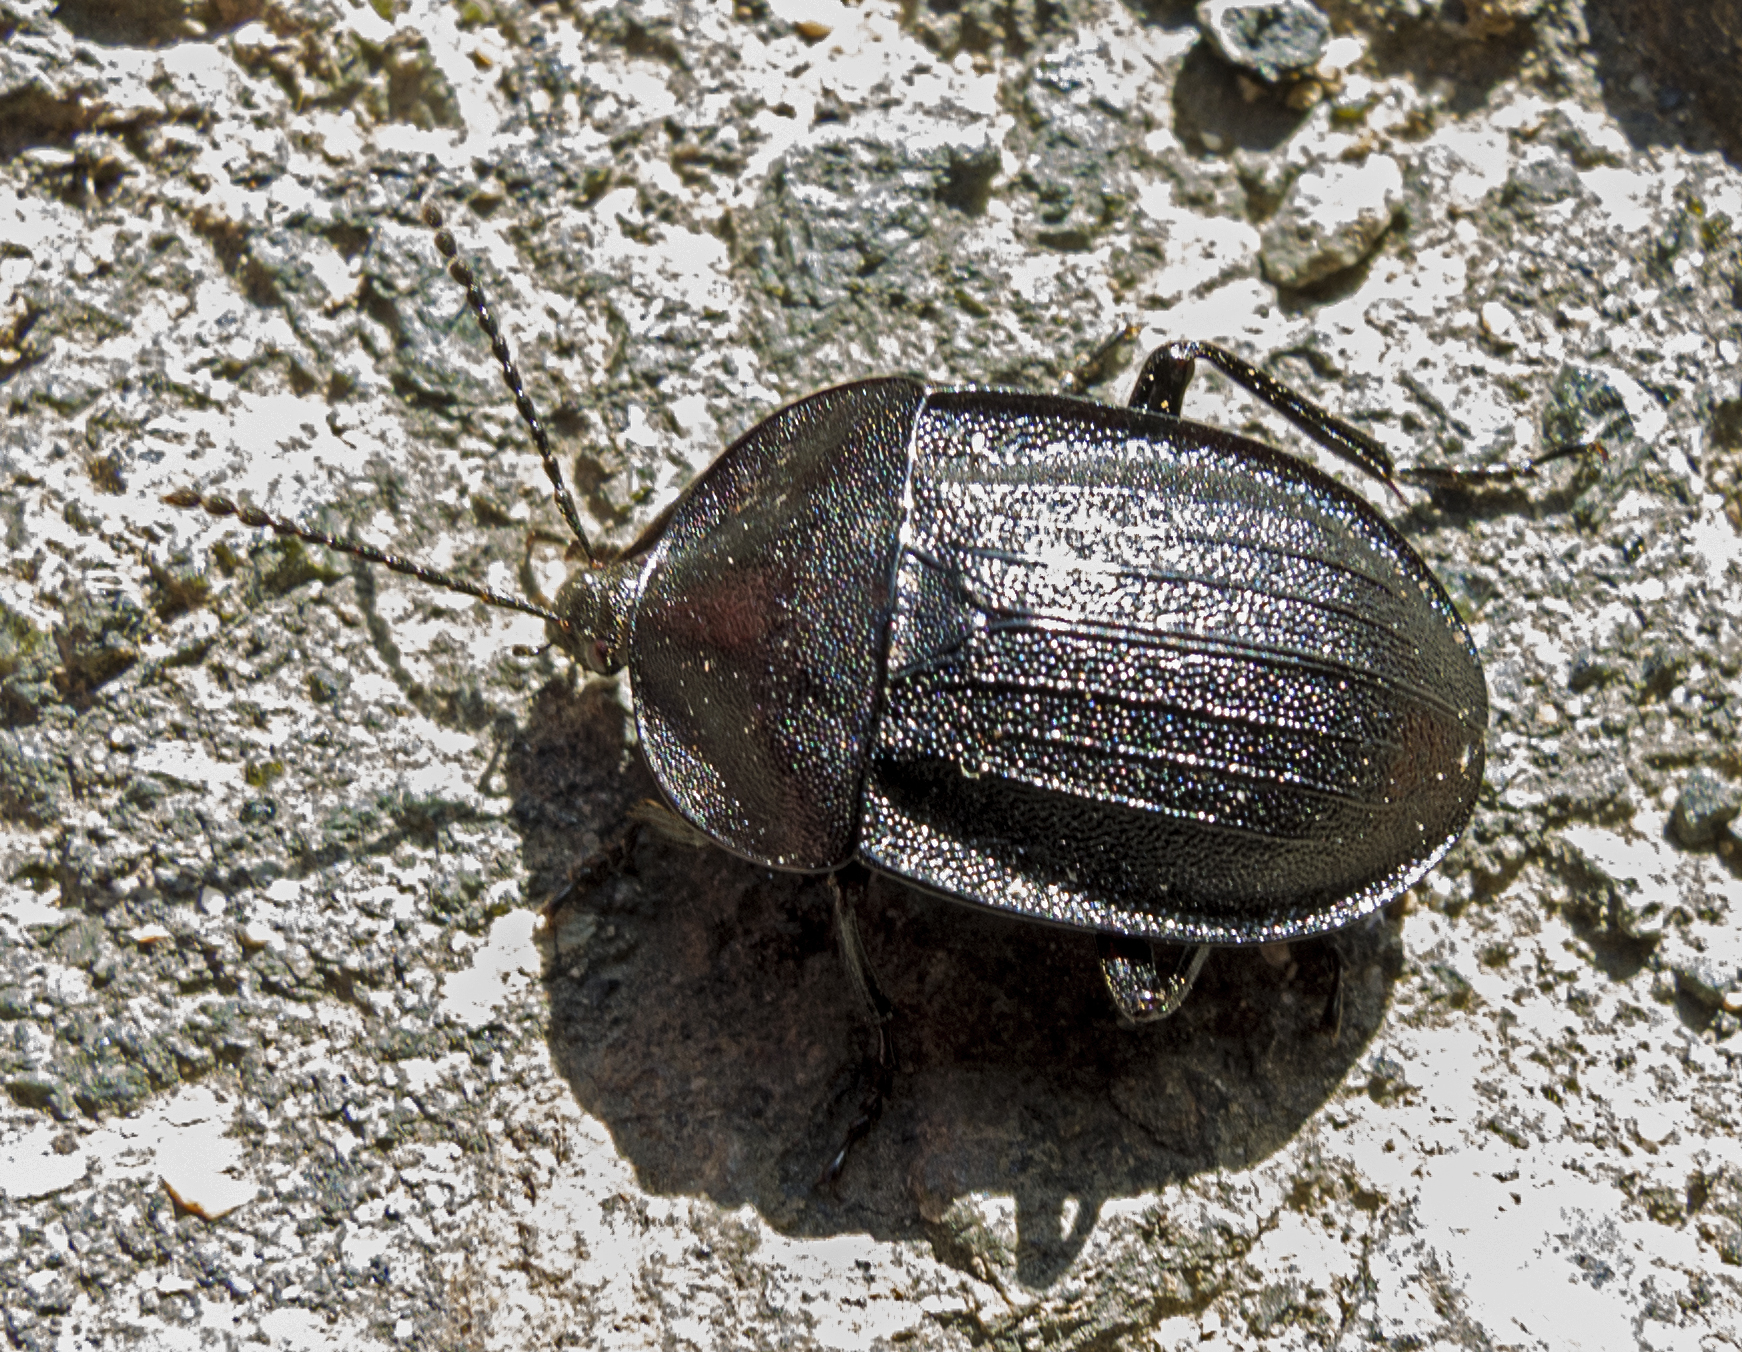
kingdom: Animalia
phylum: Arthropoda
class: Insecta
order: Coleoptera
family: Staphylinidae
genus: Silpha
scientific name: Silpha atrata
